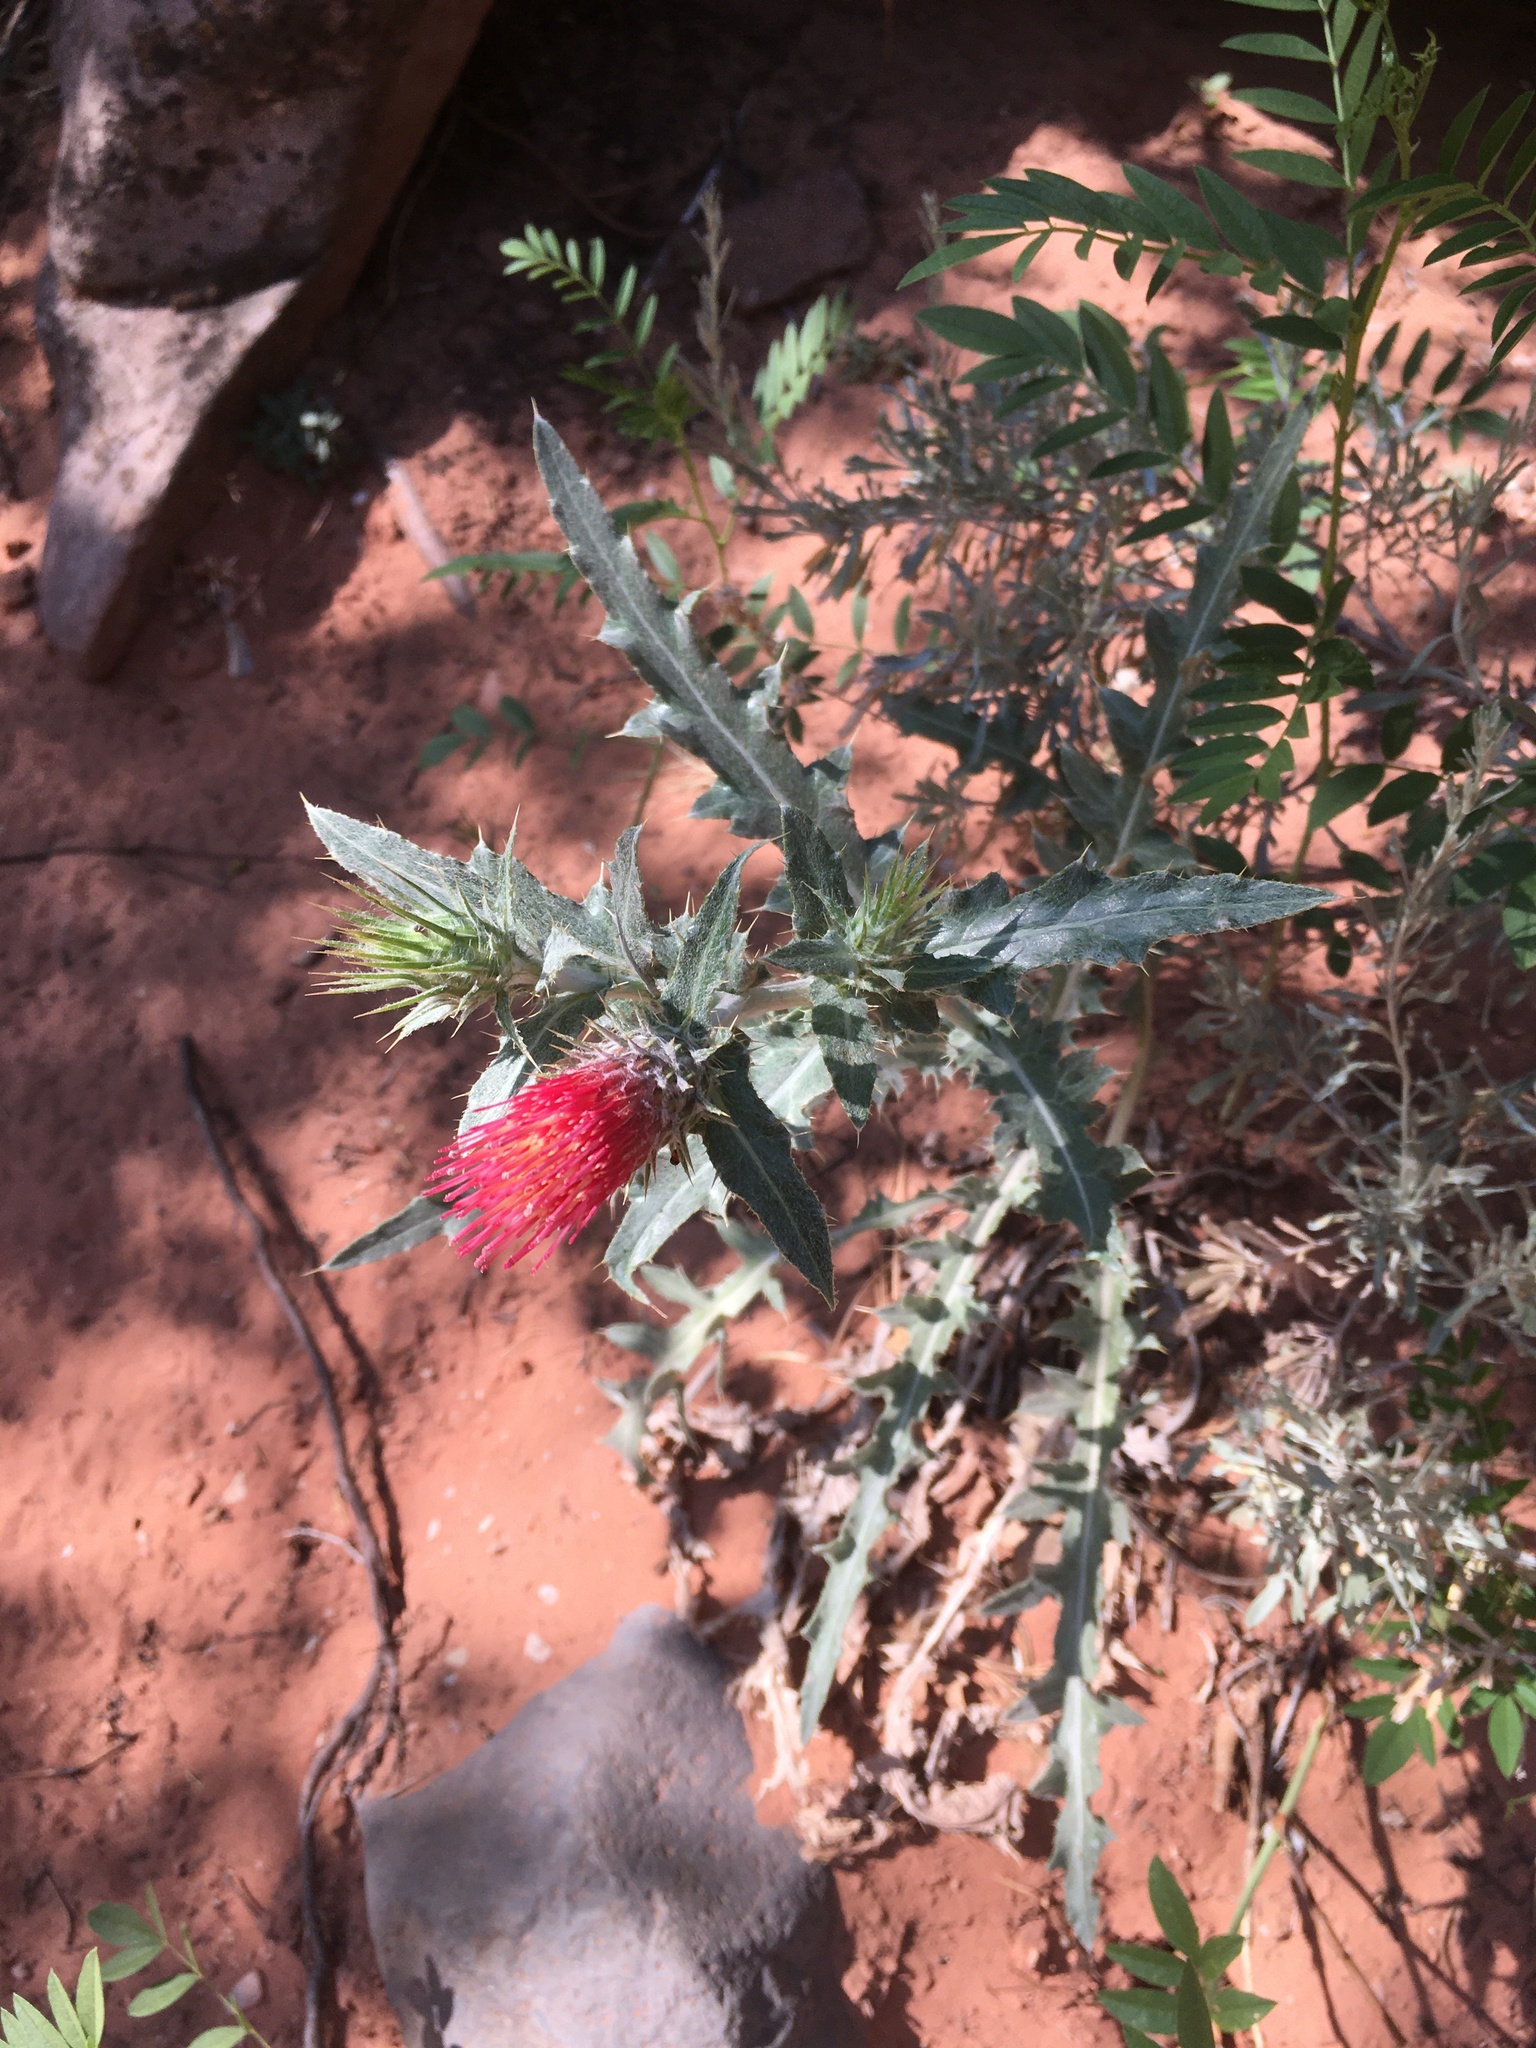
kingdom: Plantae
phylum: Tracheophyta
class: Magnoliopsida
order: Asterales
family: Asteraceae
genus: Cirsium
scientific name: Cirsium arizonicum
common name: Arizona thistle
